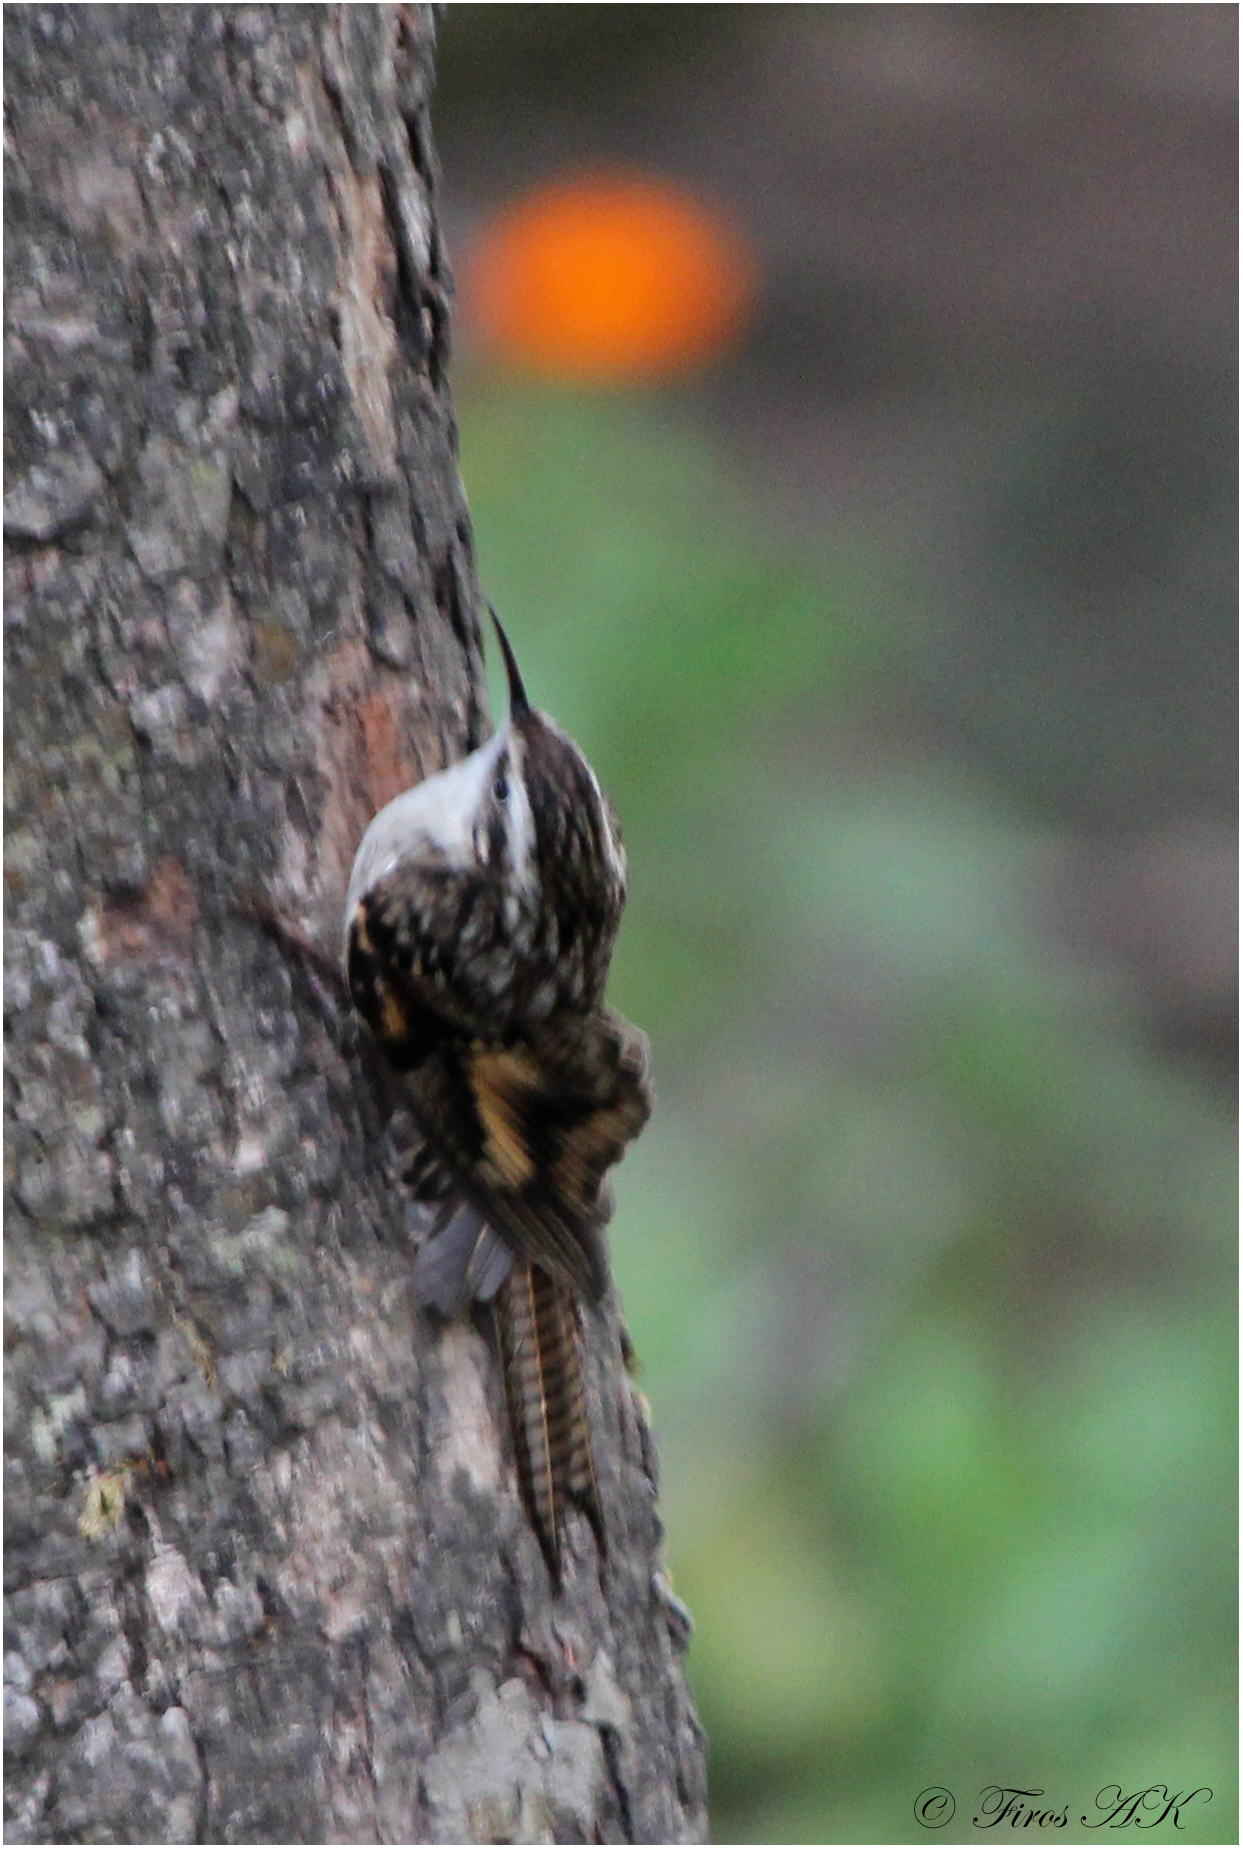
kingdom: Animalia
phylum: Chordata
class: Aves
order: Passeriformes
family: Certhiidae
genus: Certhia
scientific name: Certhia himalayana
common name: Bar-tailed treecreeper
